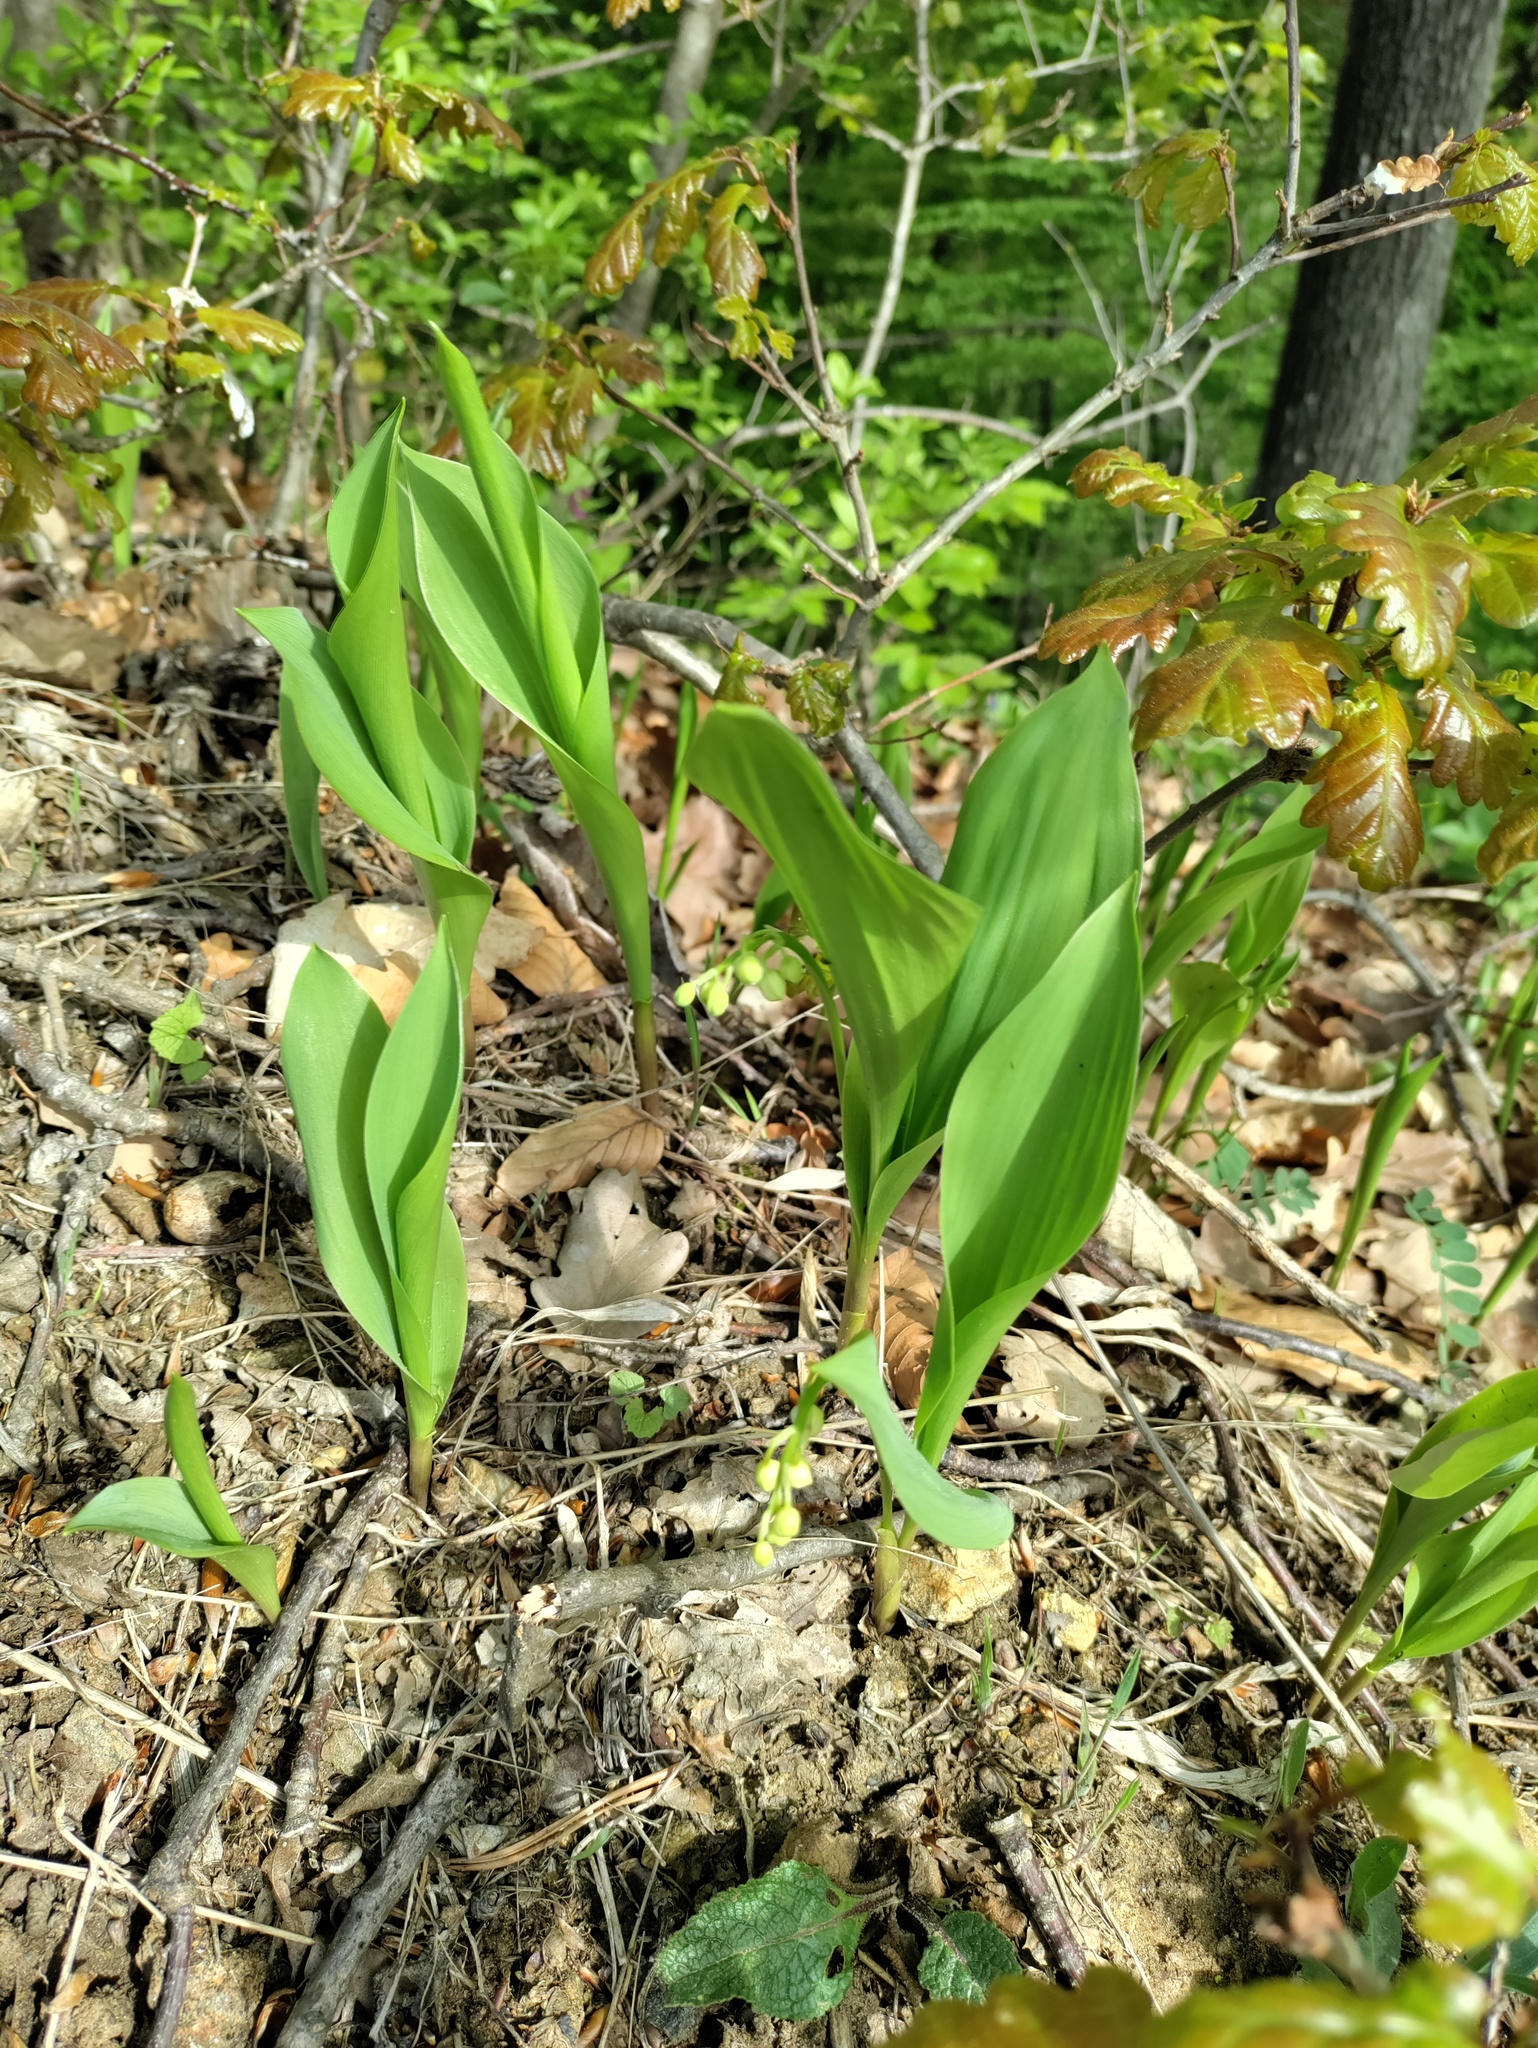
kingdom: Plantae
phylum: Tracheophyta
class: Liliopsida
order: Asparagales
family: Asparagaceae
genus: Convallaria
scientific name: Convallaria majalis
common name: Lily-of-the-valley
